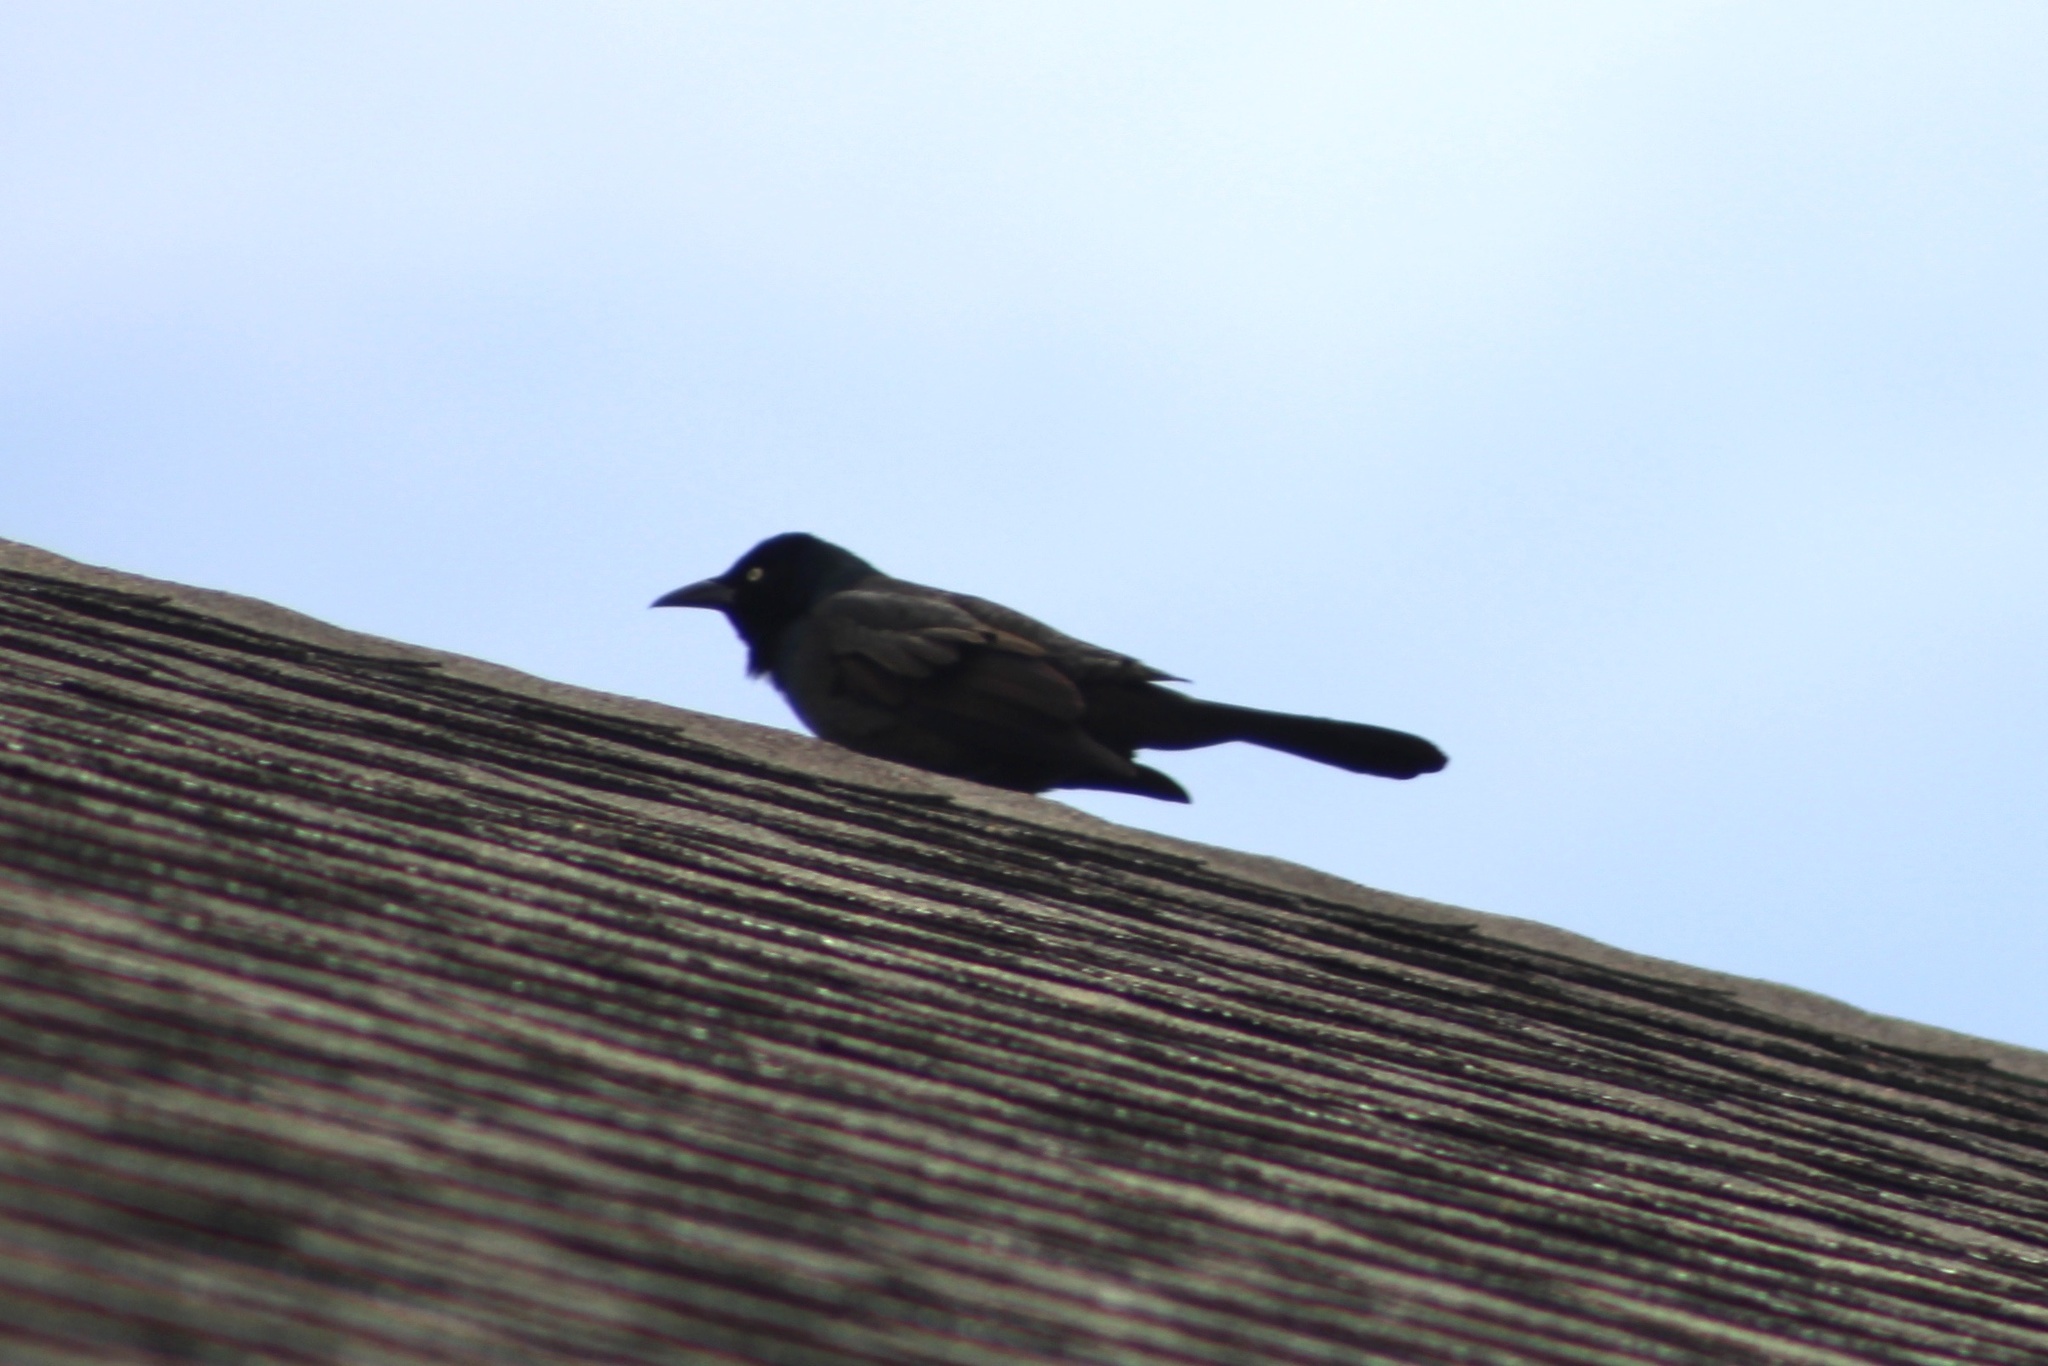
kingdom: Animalia
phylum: Chordata
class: Aves
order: Passeriformes
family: Icteridae
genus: Quiscalus
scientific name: Quiscalus quiscula
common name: Common grackle
